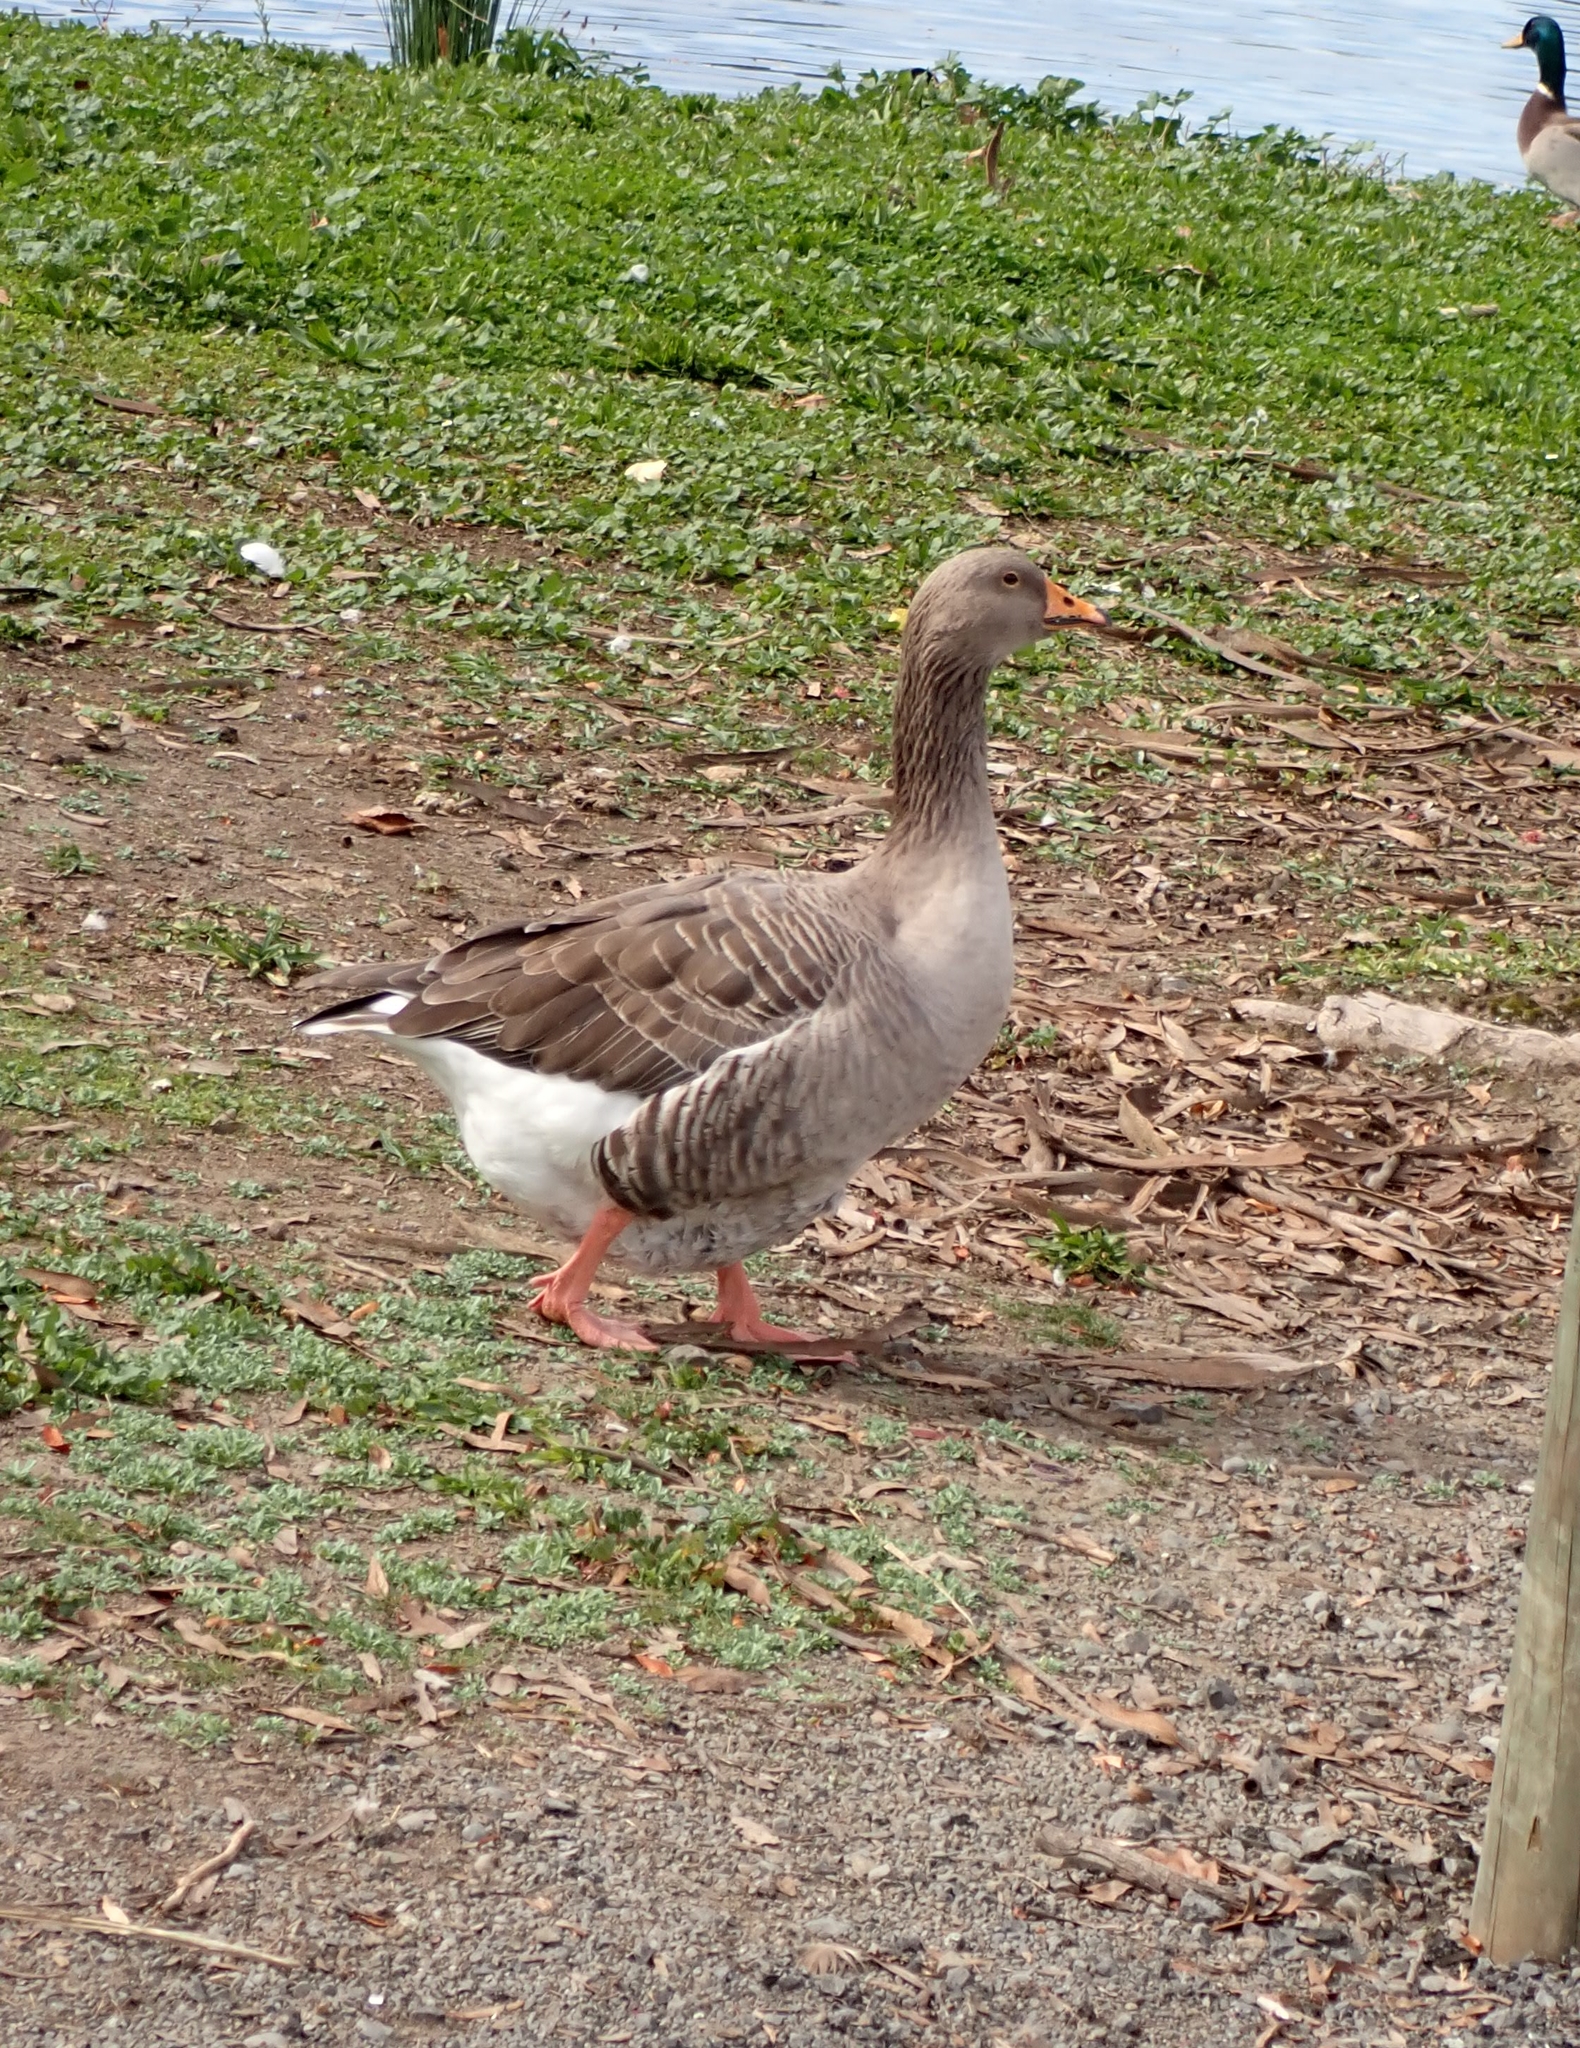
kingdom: Animalia
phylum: Chordata
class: Aves
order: Anseriformes
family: Anatidae
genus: Anser
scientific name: Anser anser
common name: Greylag goose
